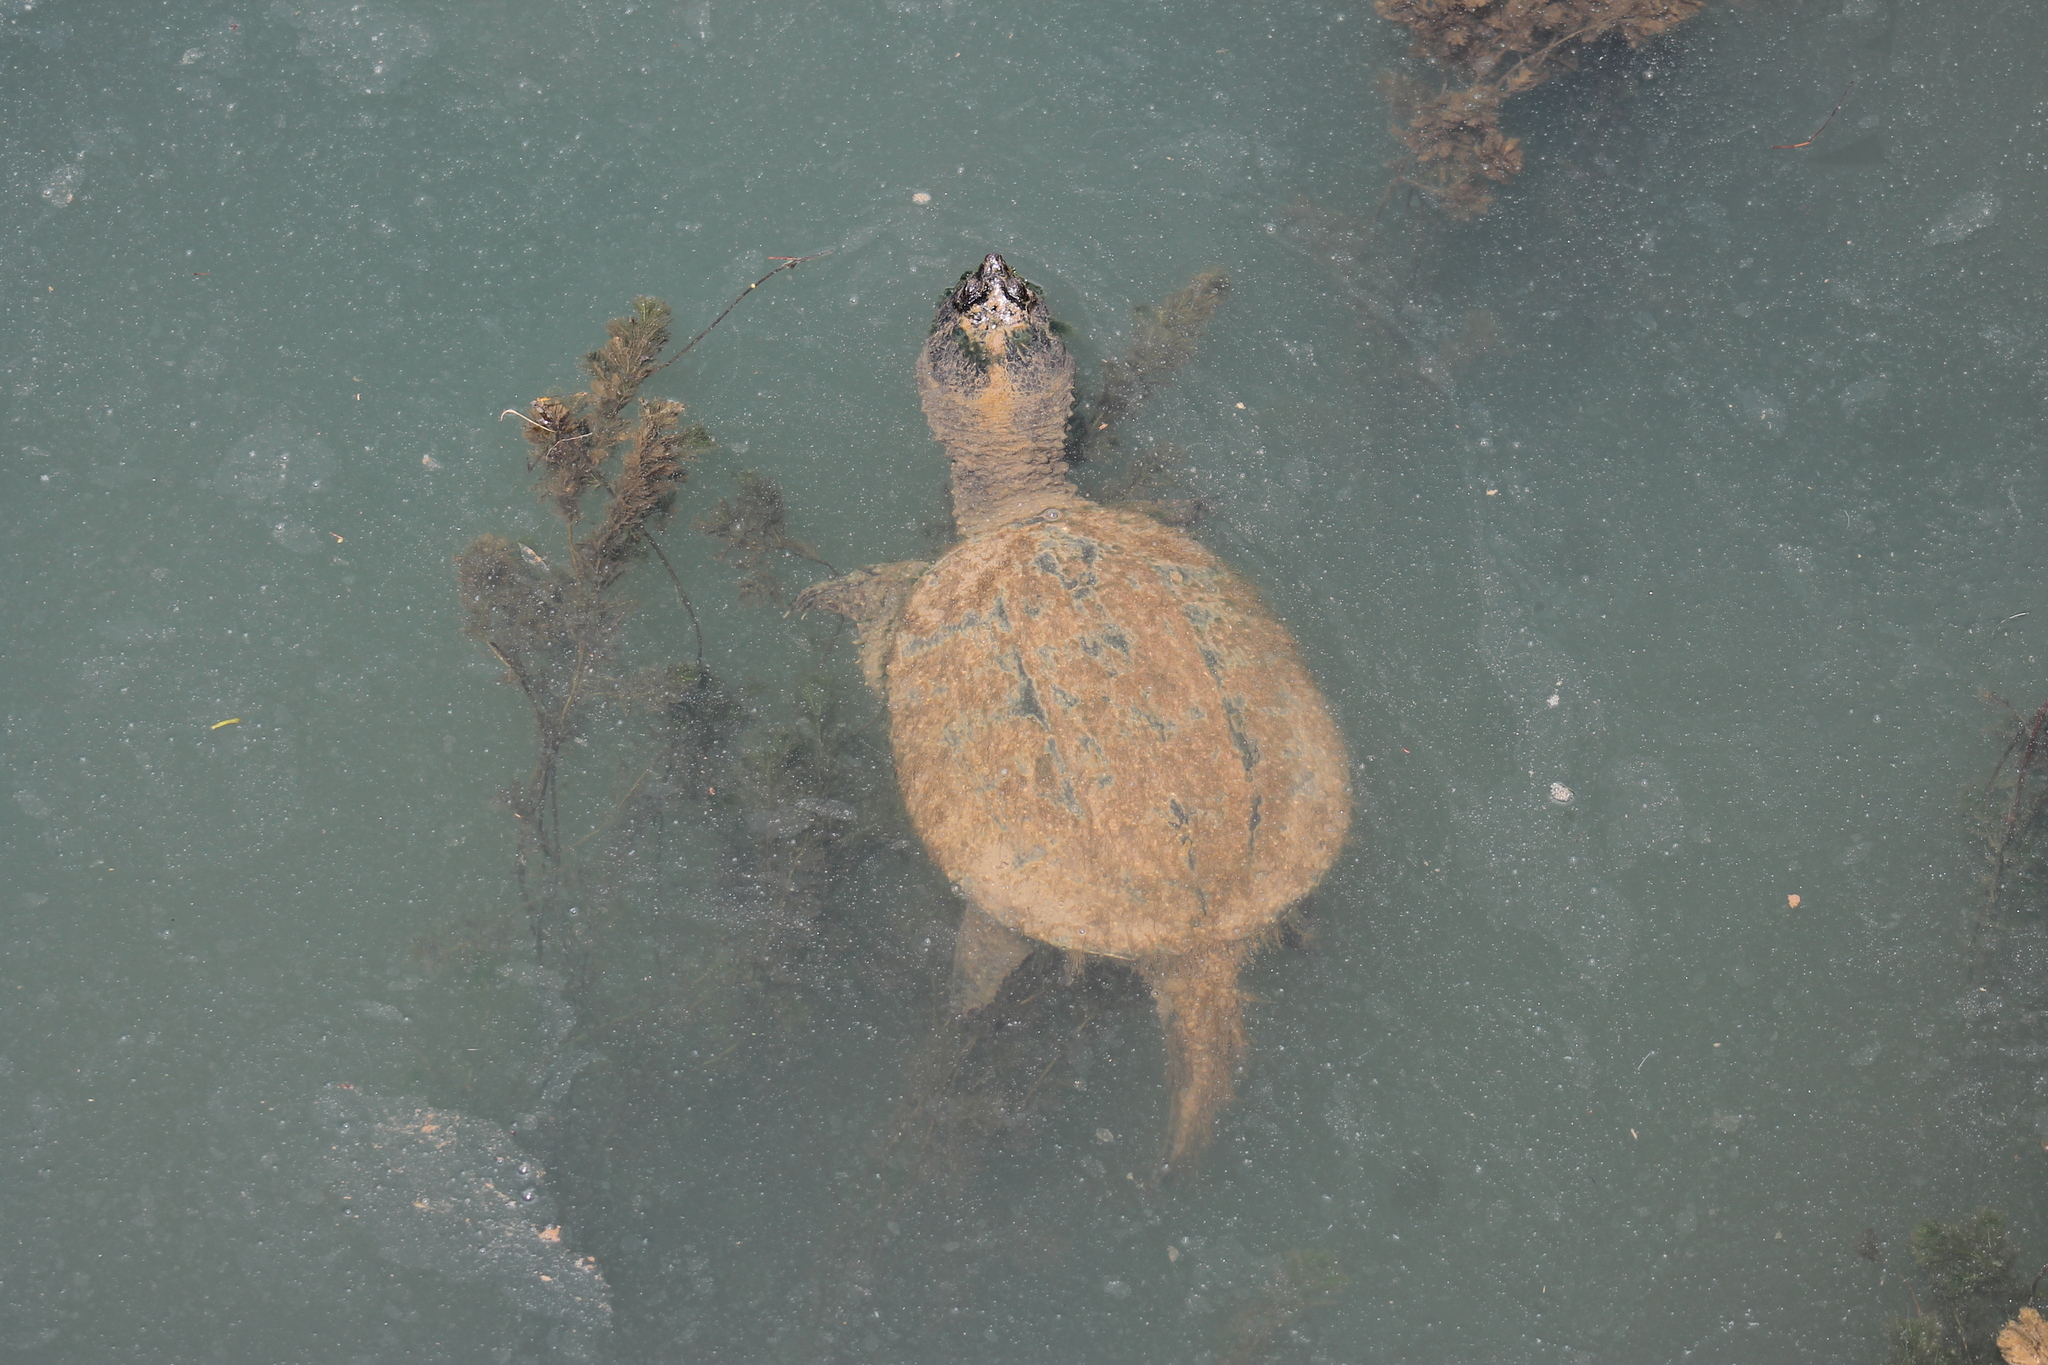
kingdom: Animalia
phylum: Chordata
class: Testudines
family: Chelydridae
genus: Chelydra
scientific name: Chelydra serpentina
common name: Common snapping turtle
